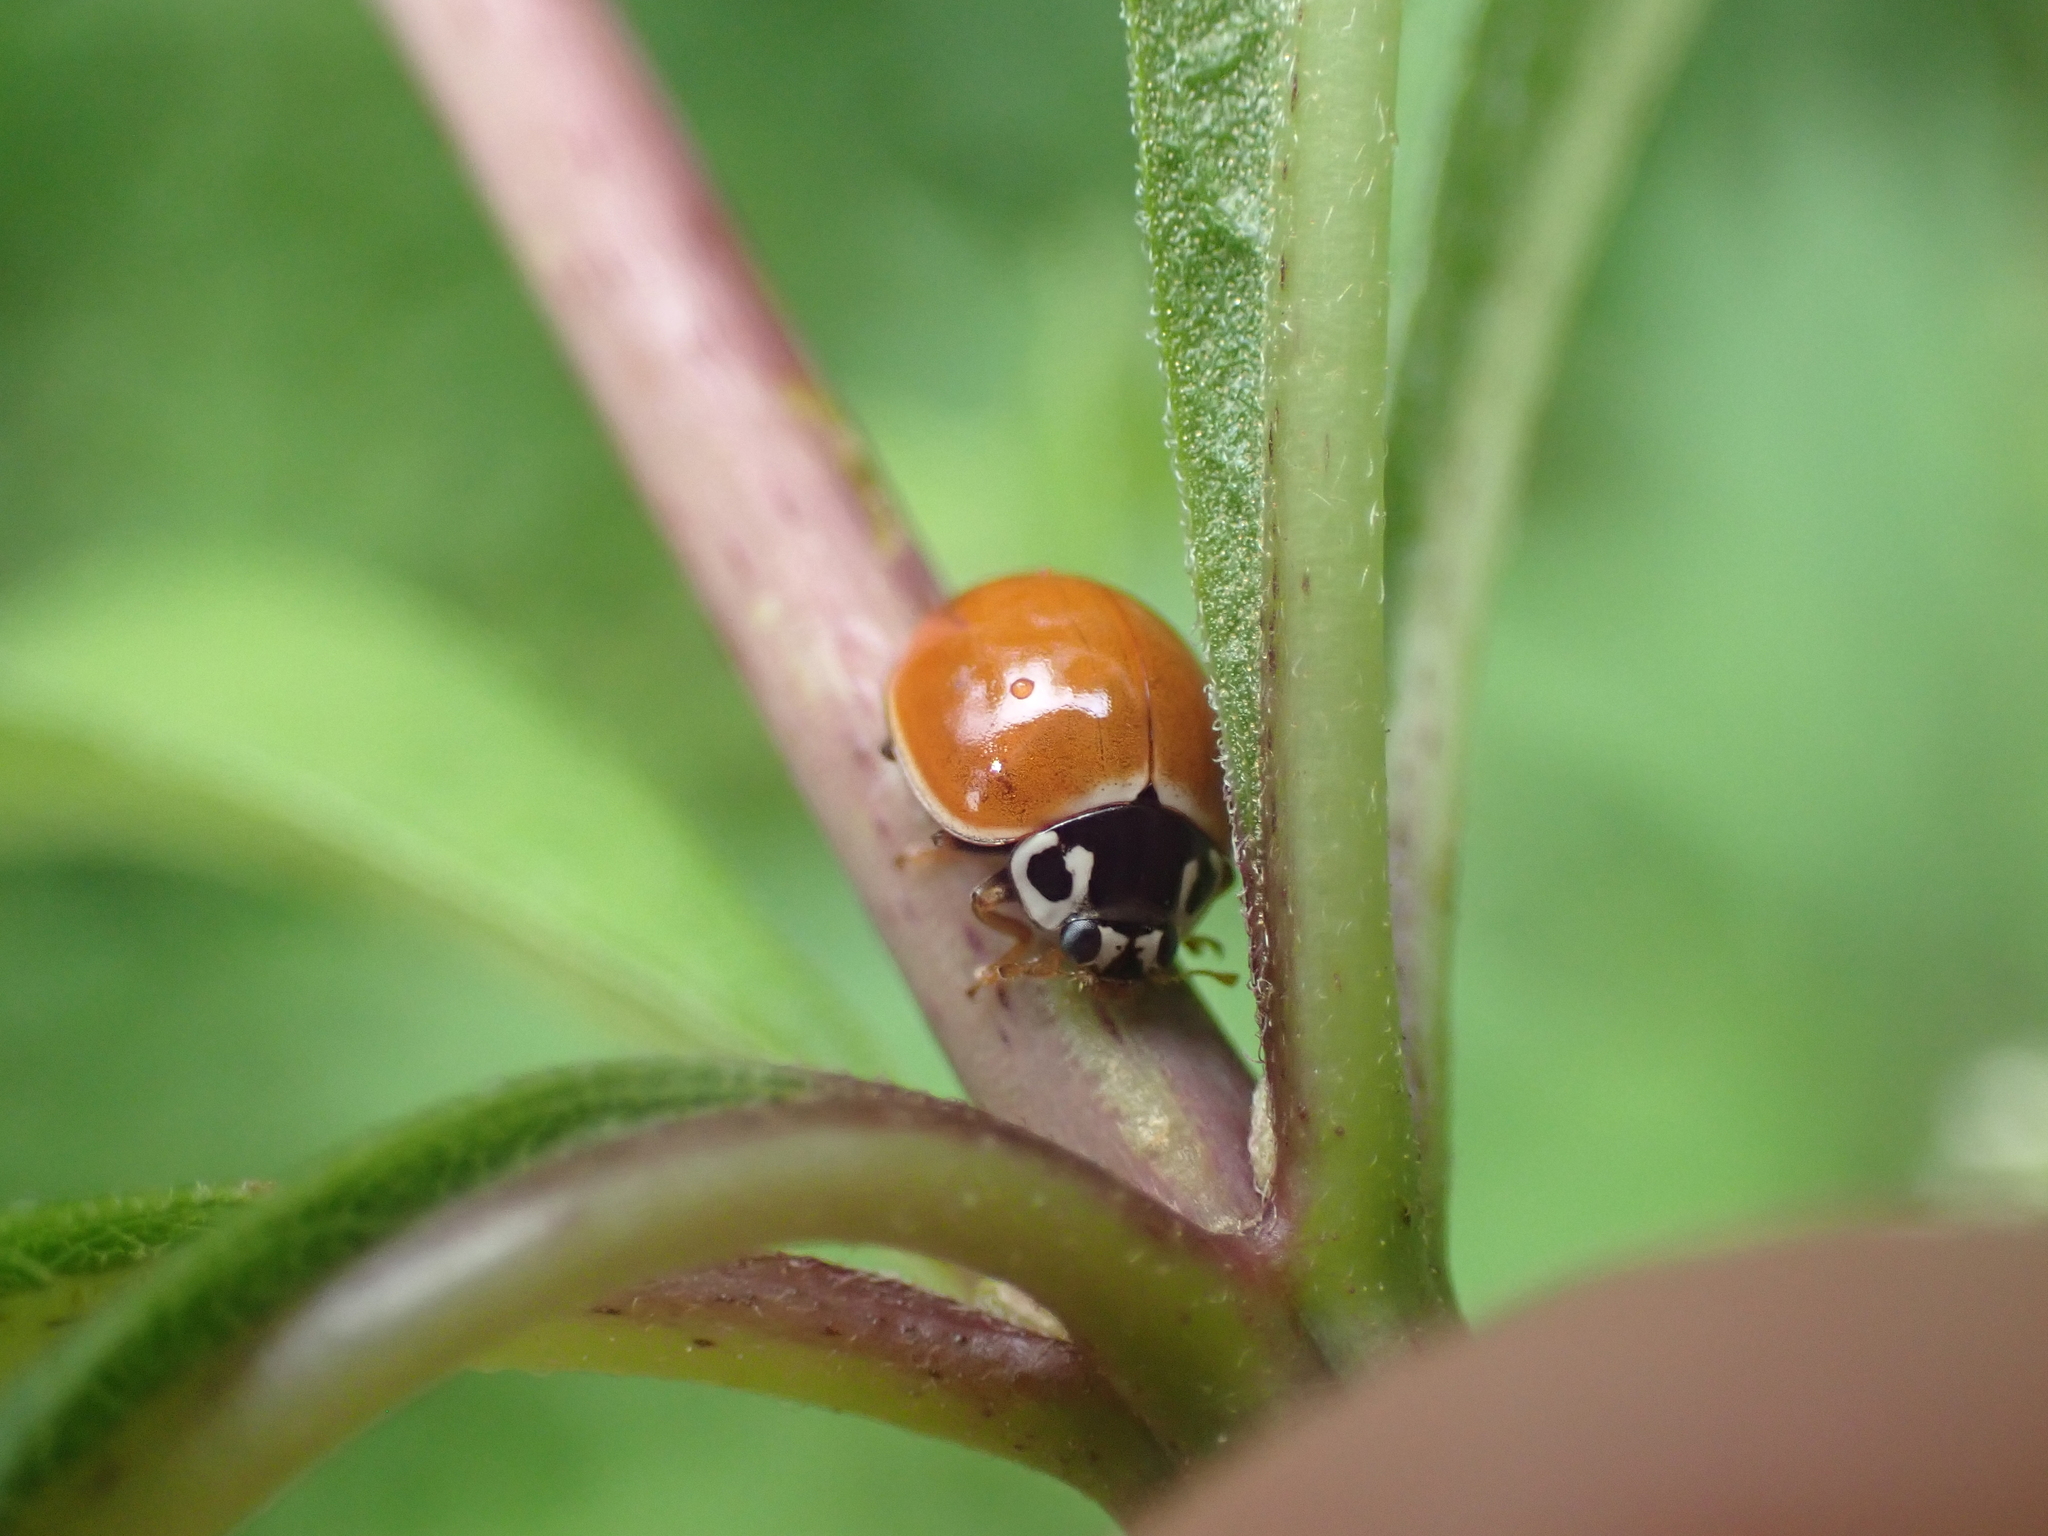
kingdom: Animalia
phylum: Arthropoda
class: Insecta
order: Coleoptera
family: Coccinellidae
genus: Cycloneda
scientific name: Cycloneda munda
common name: Polished lady beetle
